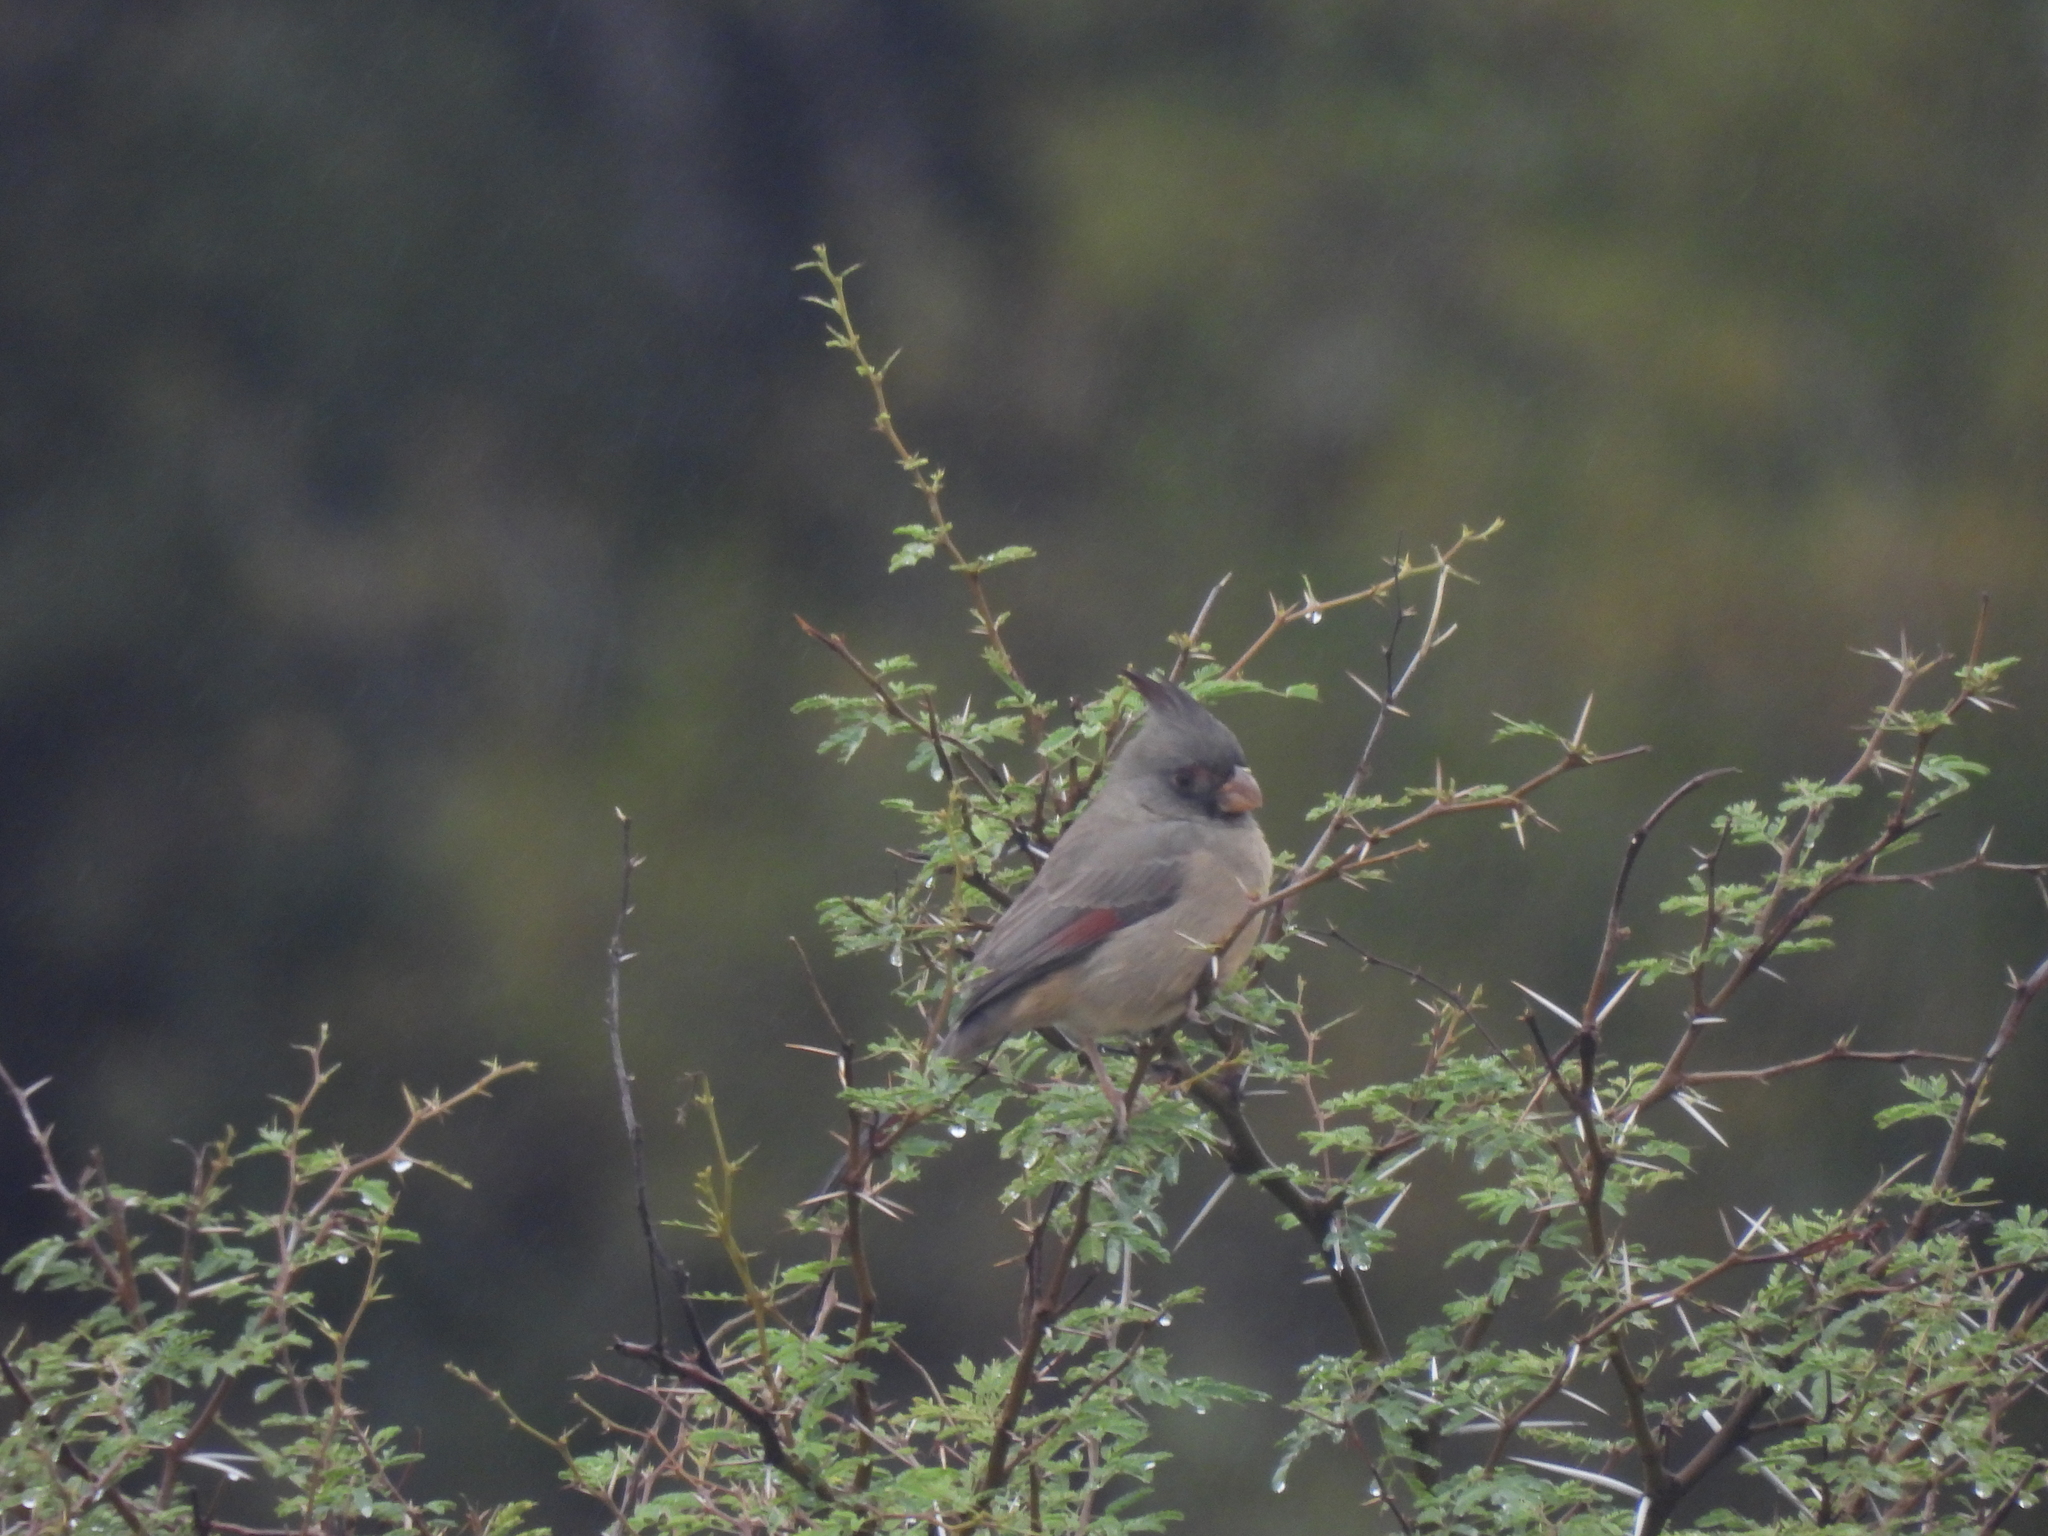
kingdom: Animalia
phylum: Chordata
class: Aves
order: Passeriformes
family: Cardinalidae
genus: Cardinalis
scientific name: Cardinalis sinuatus
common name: Pyrrhuloxia
